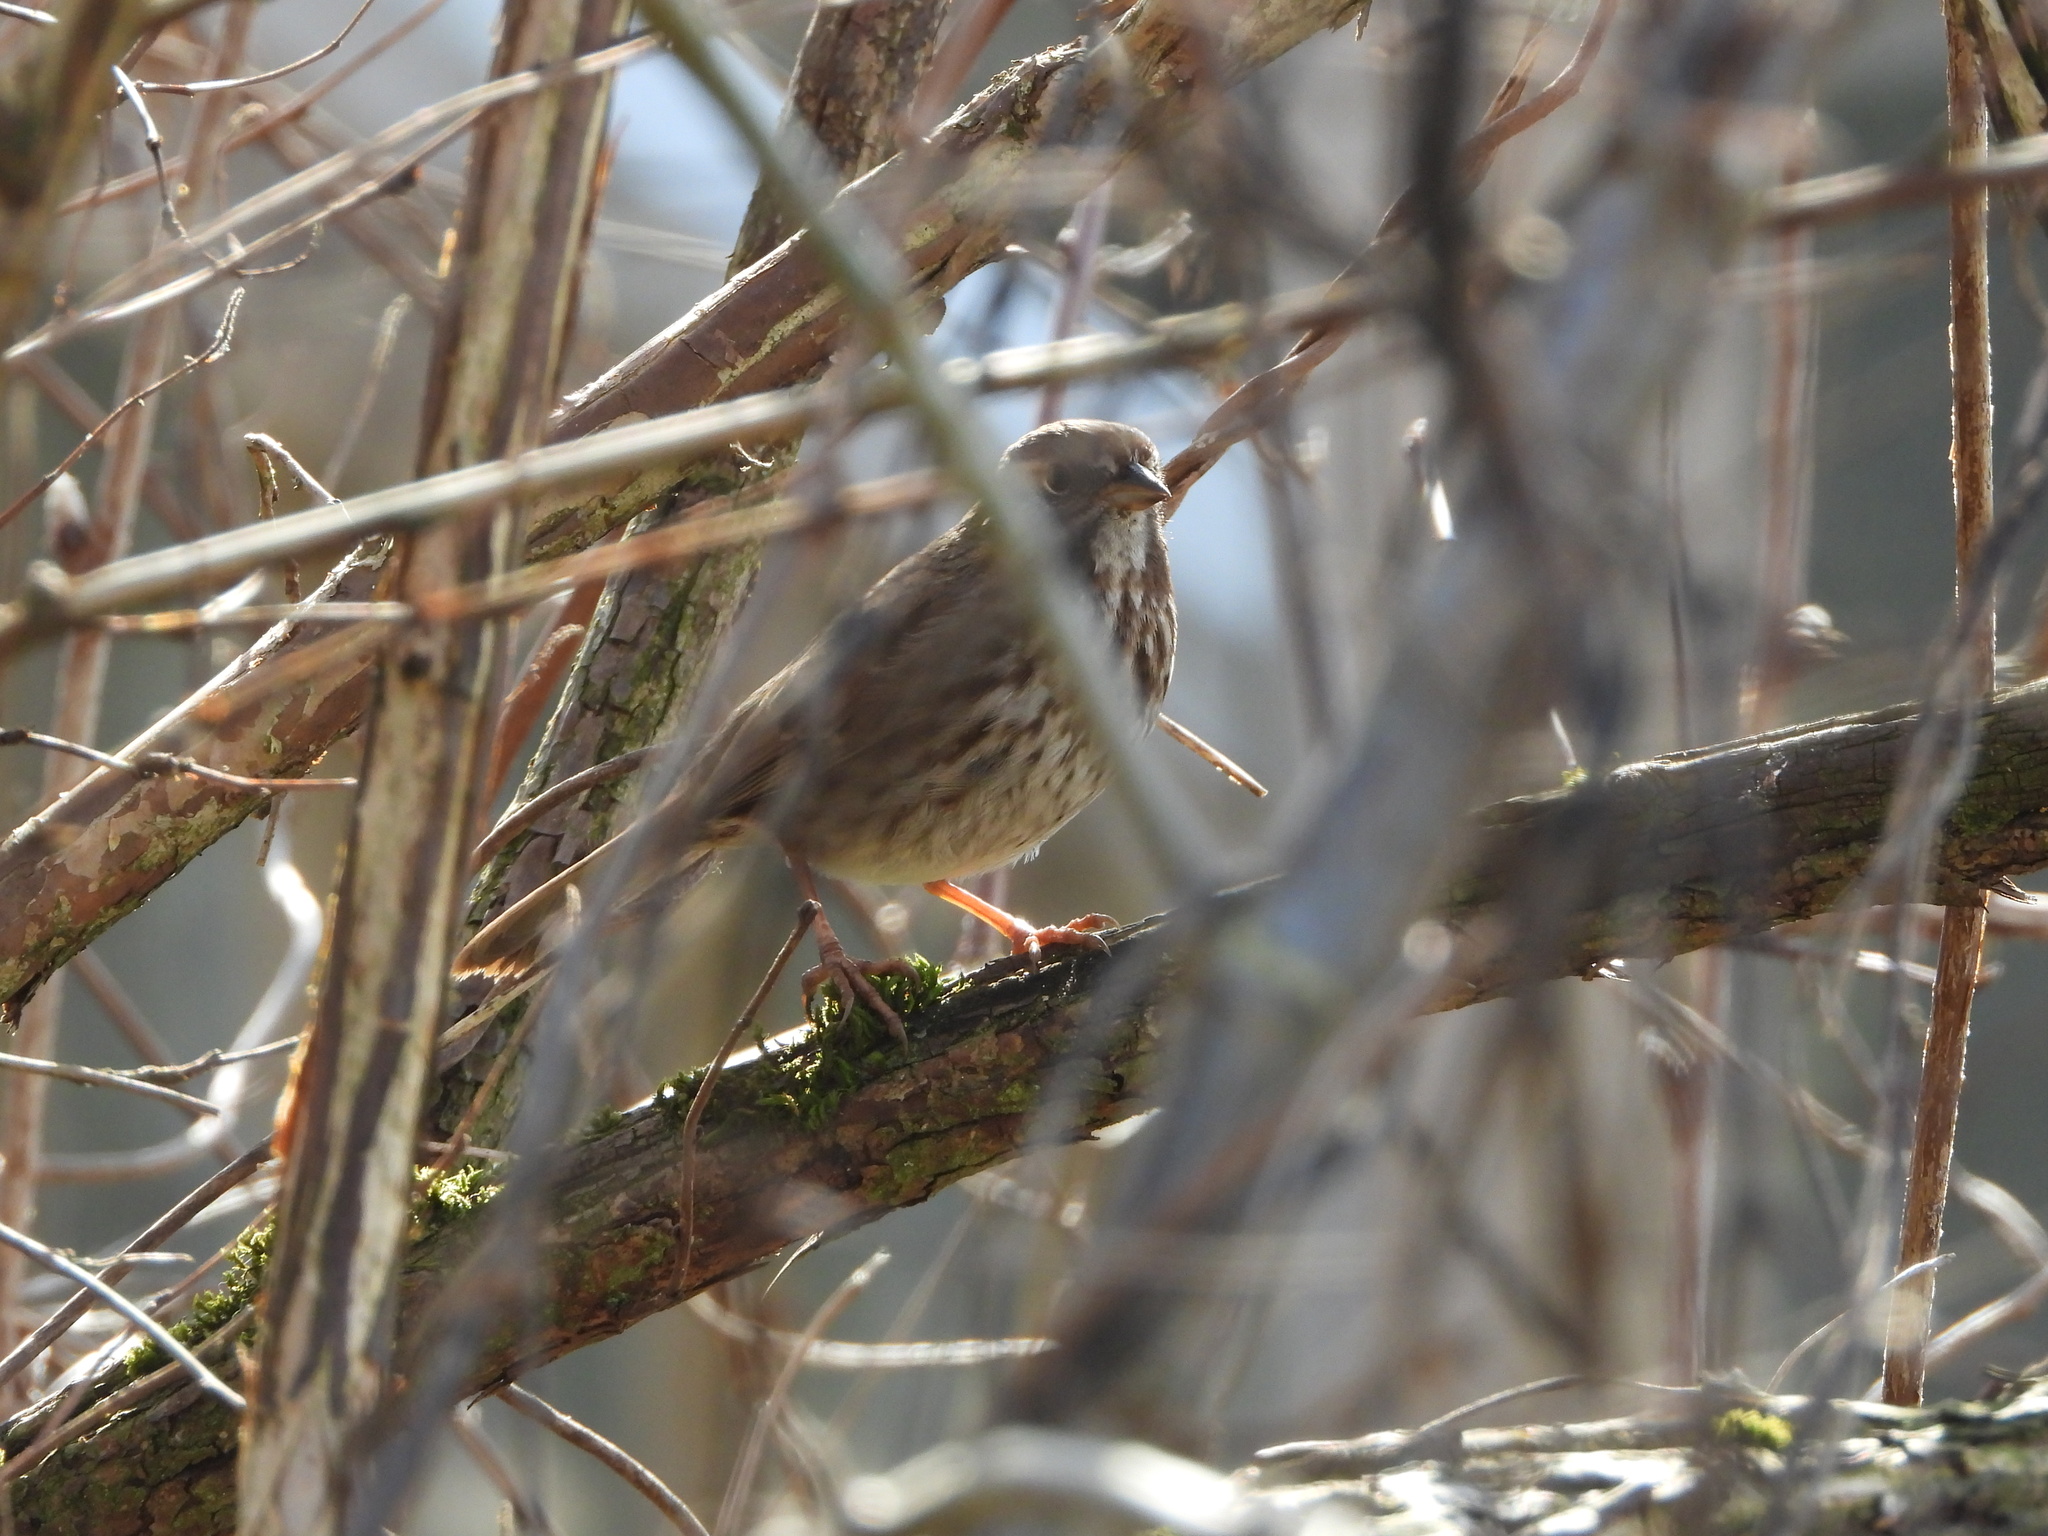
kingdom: Animalia
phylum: Chordata
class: Aves
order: Passeriformes
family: Passerellidae
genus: Melospiza
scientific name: Melospiza melodia
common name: Song sparrow
